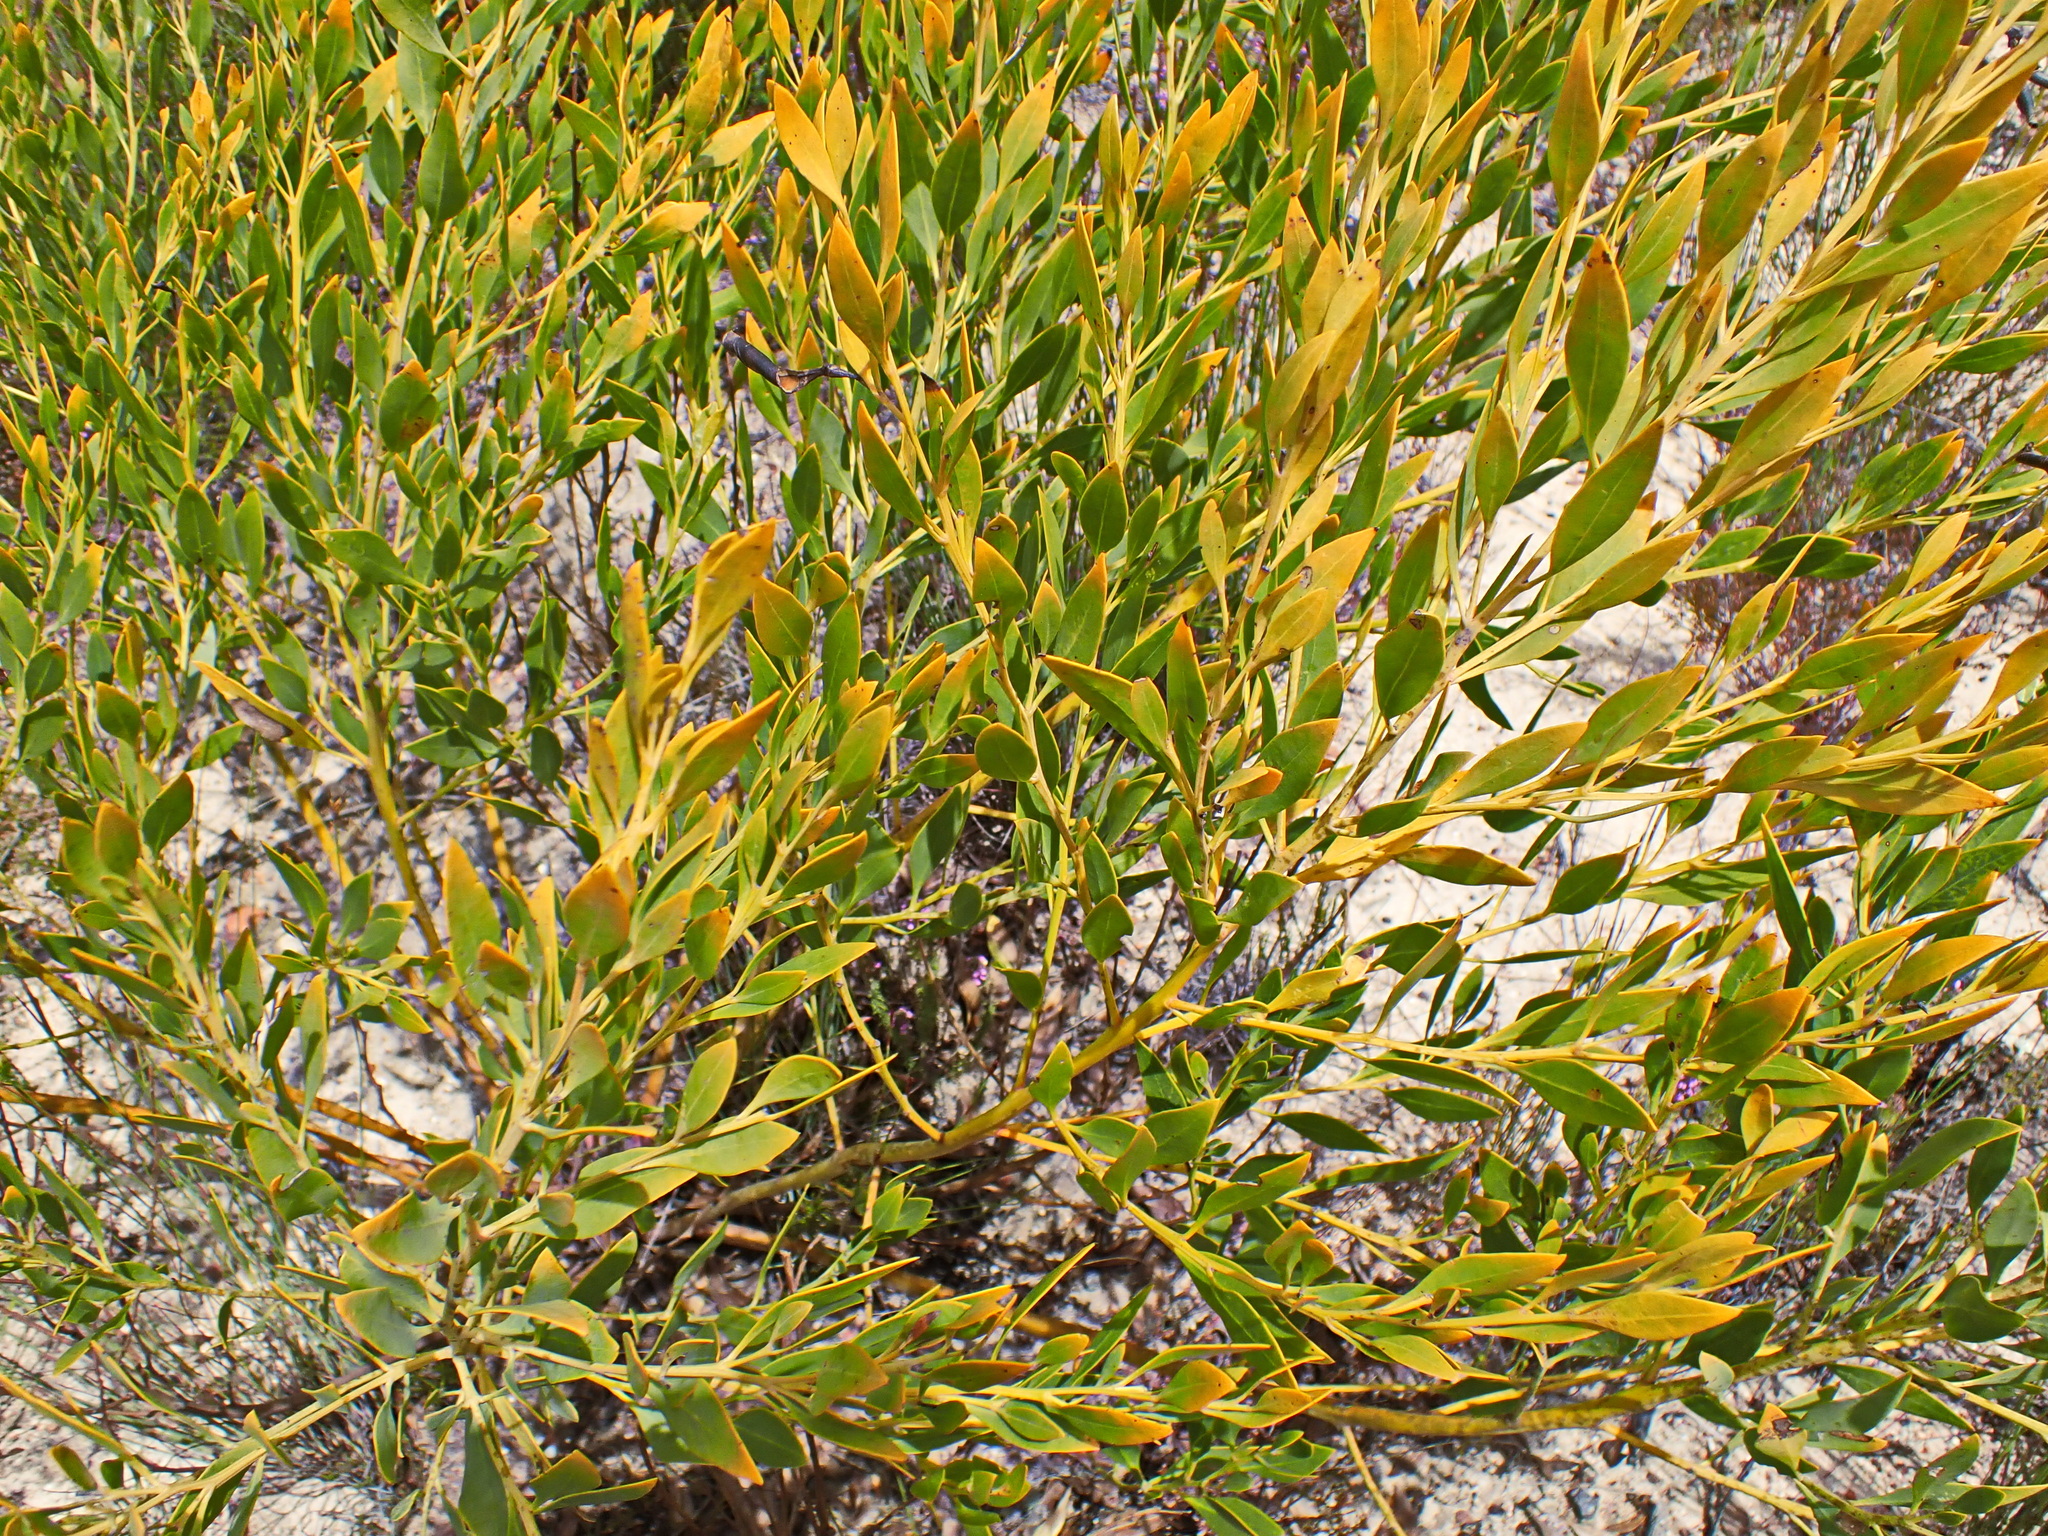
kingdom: Plantae
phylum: Tracheophyta
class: Magnoliopsida
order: Fabales
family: Fabaceae
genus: Rafnia
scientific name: Rafnia vlokii
